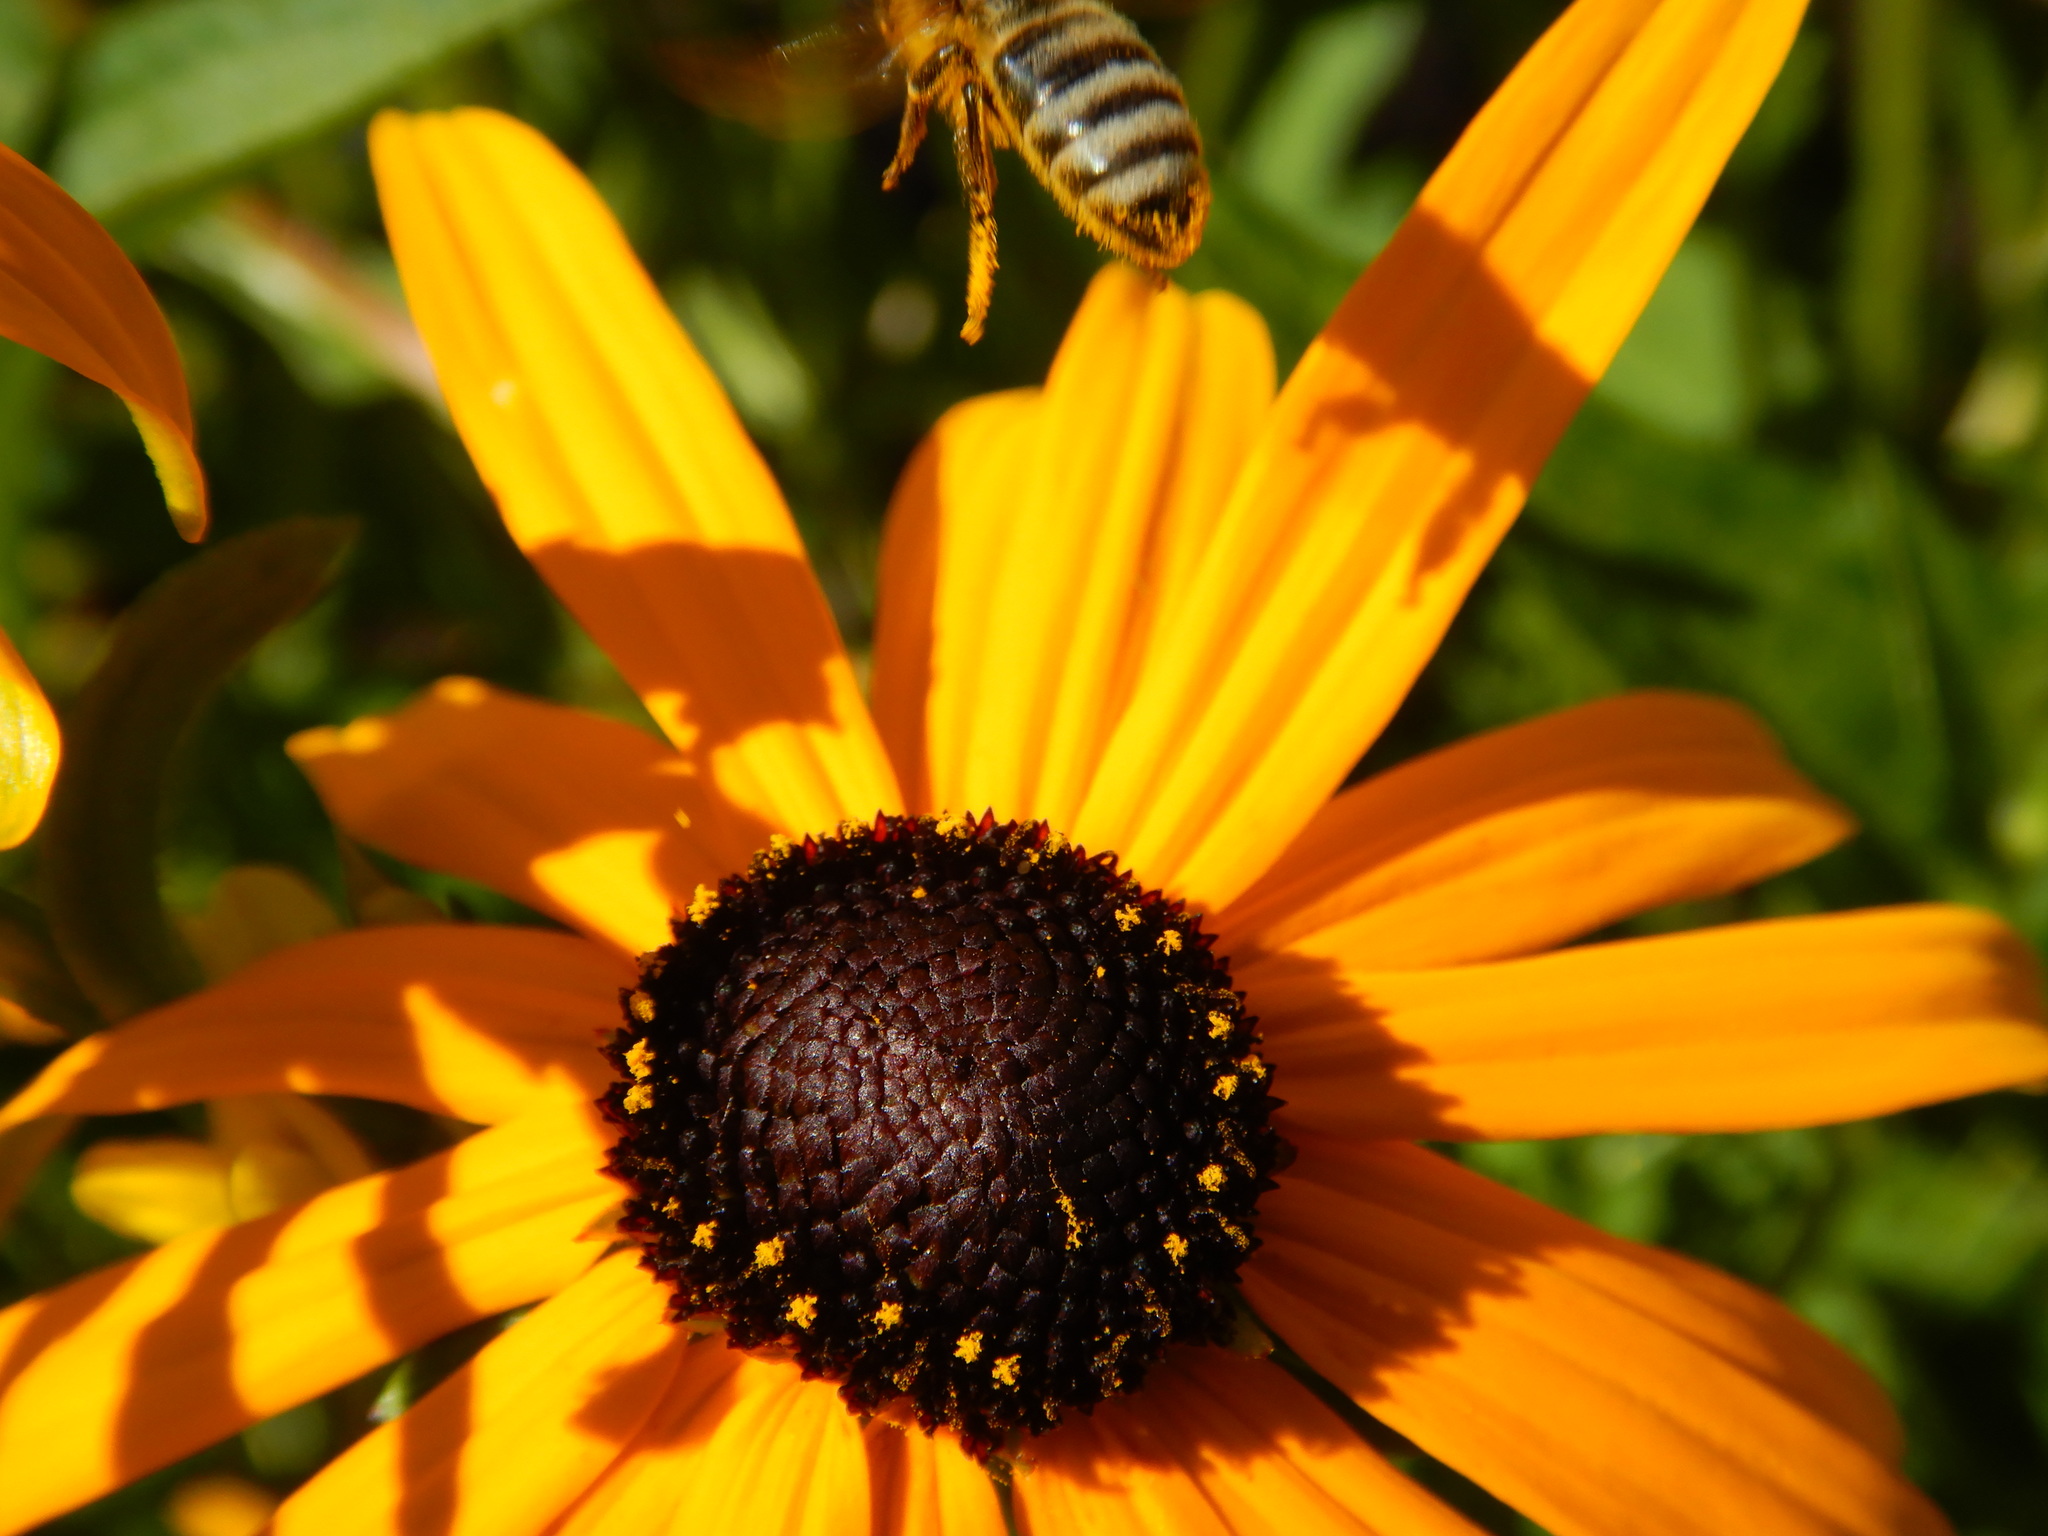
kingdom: Animalia
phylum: Arthropoda
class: Insecta
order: Hymenoptera
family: Apidae
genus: Apis
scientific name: Apis mellifera
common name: Honey bee
